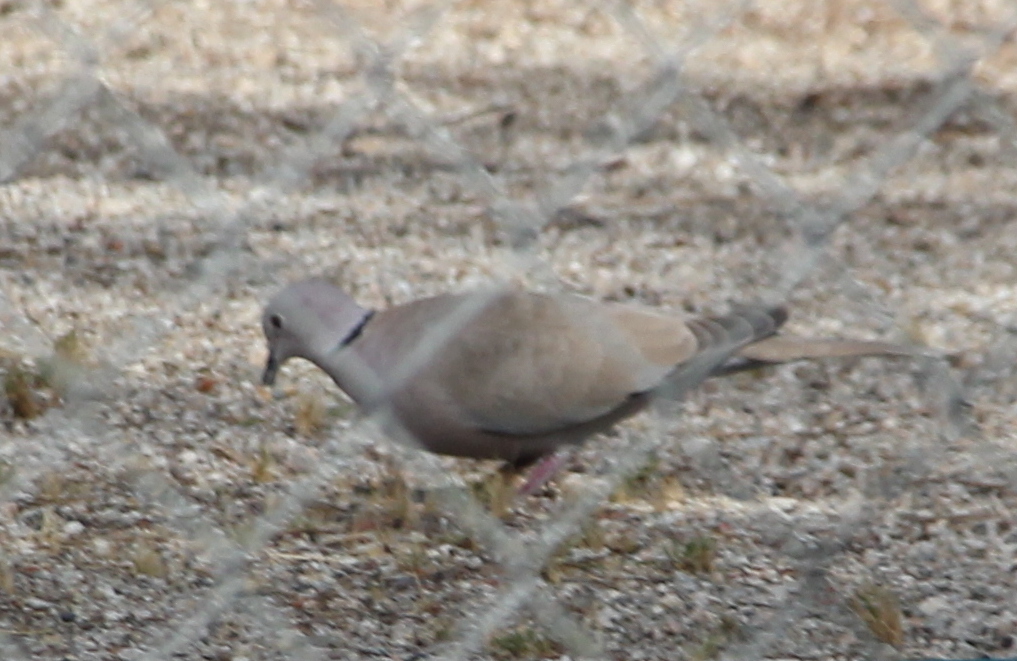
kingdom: Animalia
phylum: Chordata
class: Aves
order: Columbiformes
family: Columbidae
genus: Streptopelia
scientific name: Streptopelia decaocto
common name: Eurasian collared dove
